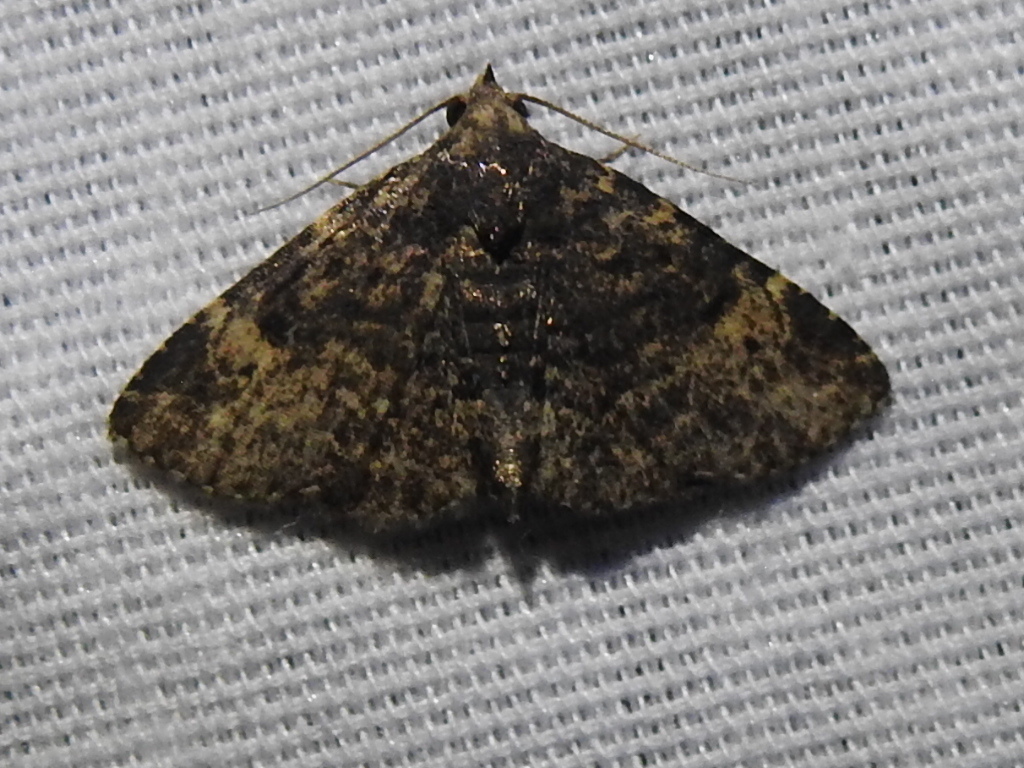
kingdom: Animalia
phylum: Arthropoda
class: Insecta
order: Lepidoptera
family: Erebidae
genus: Metalectra
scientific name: Metalectra discalis
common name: Common fungus moth
